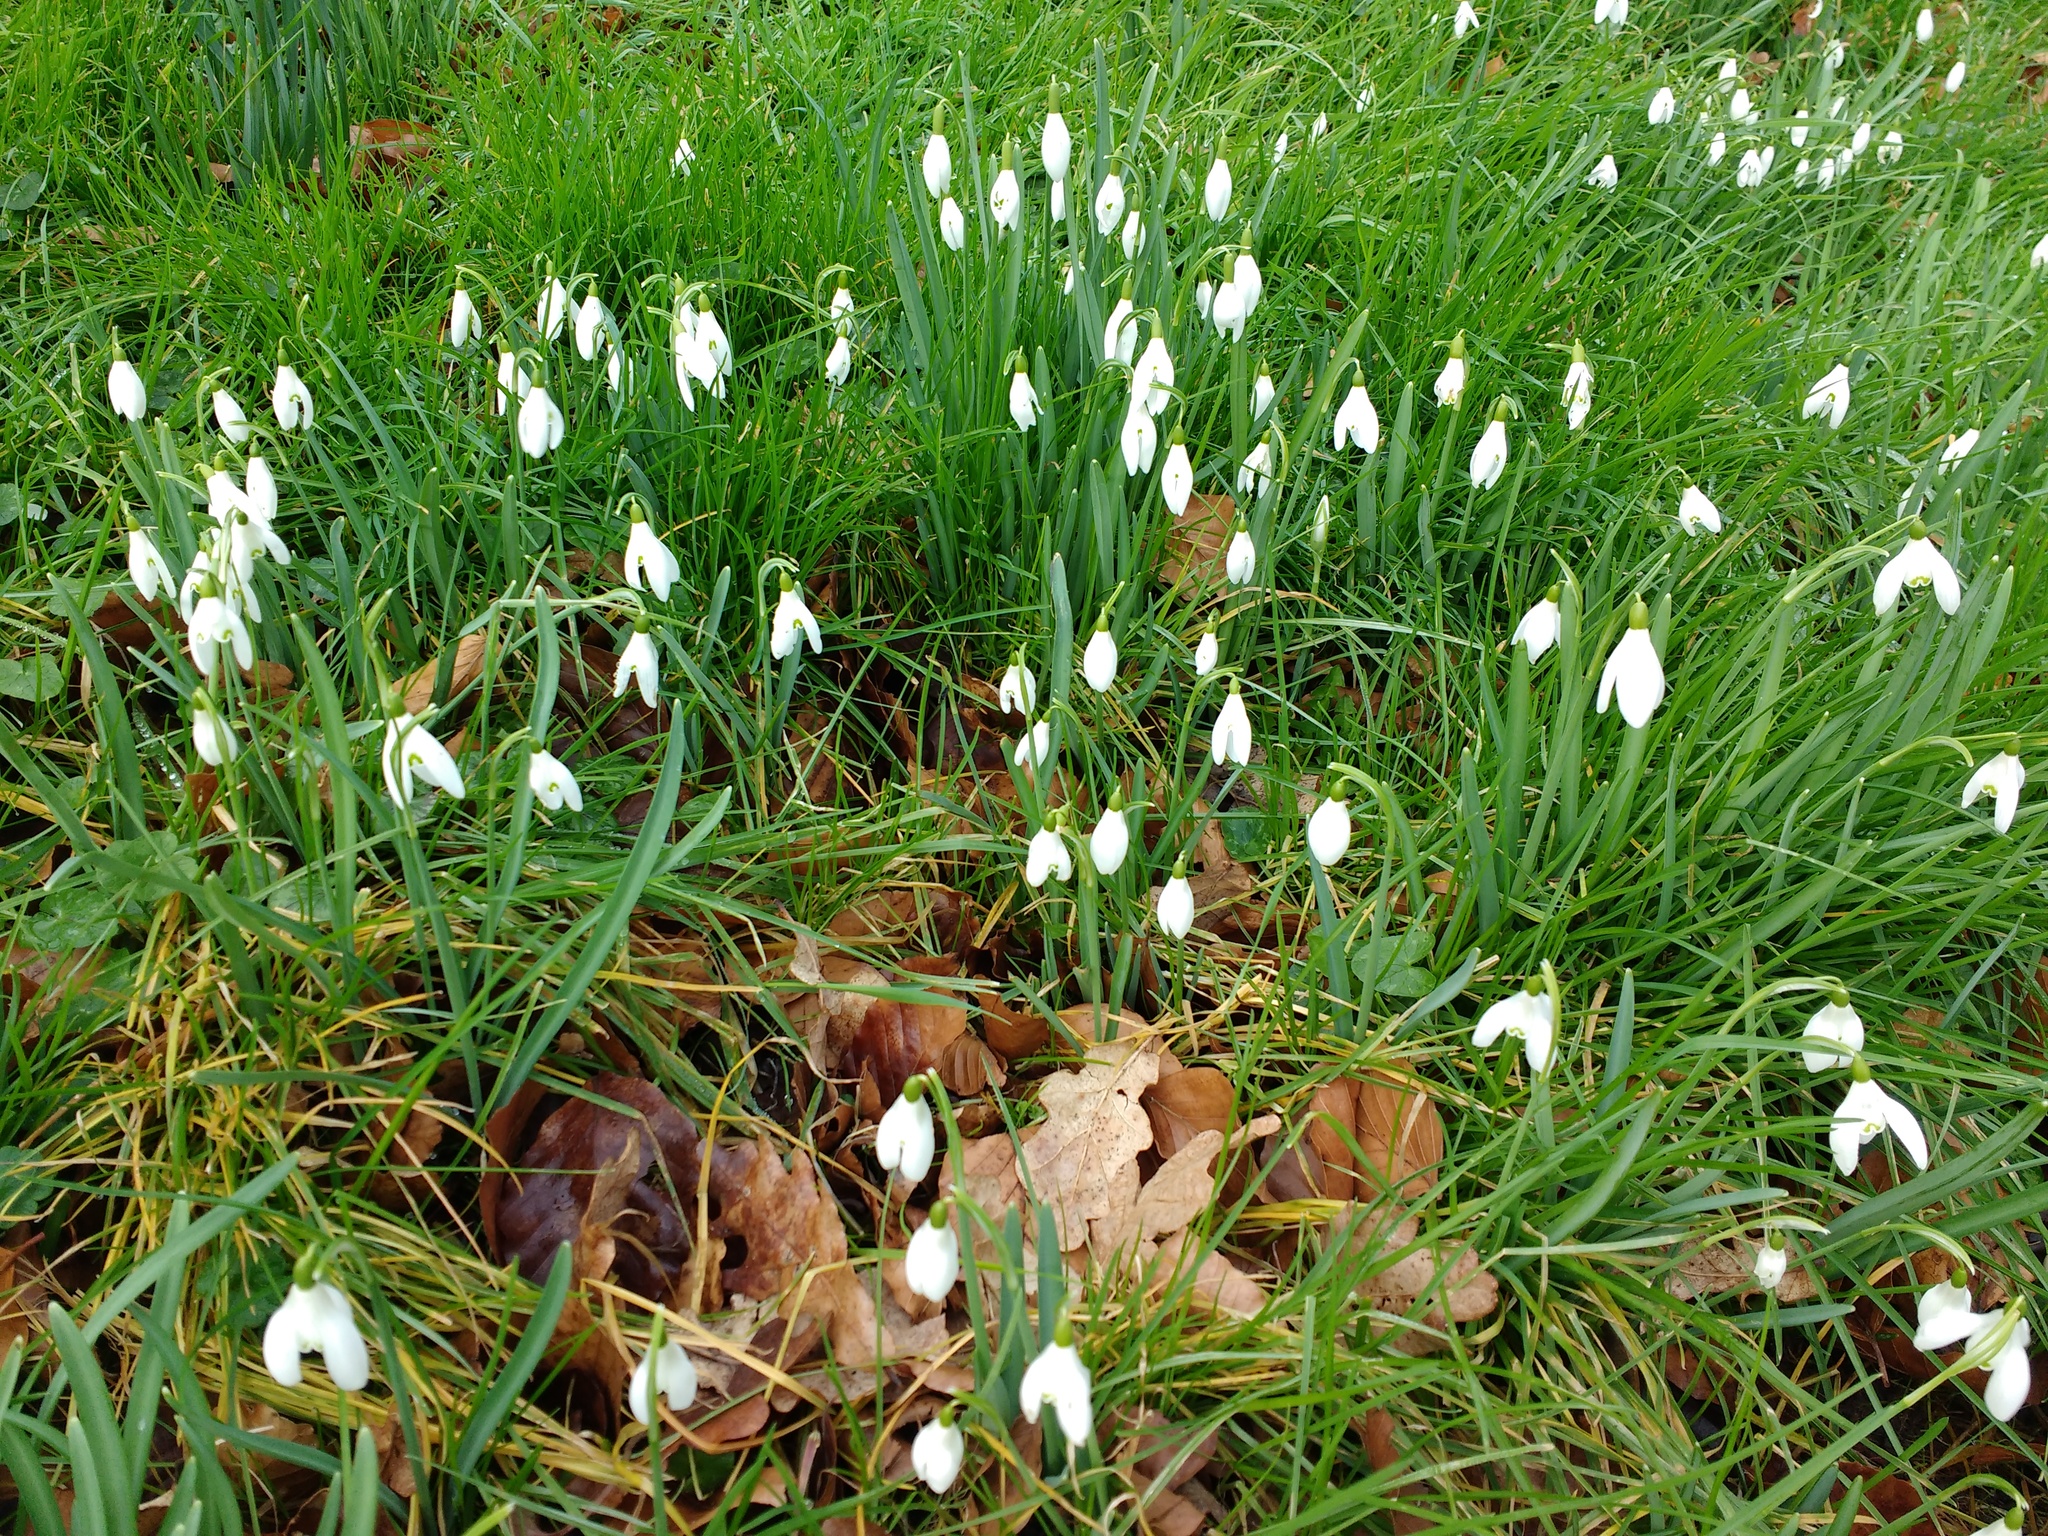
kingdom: Plantae
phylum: Tracheophyta
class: Liliopsida
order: Asparagales
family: Amaryllidaceae
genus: Galanthus
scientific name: Galanthus nivalis
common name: Snowdrop
